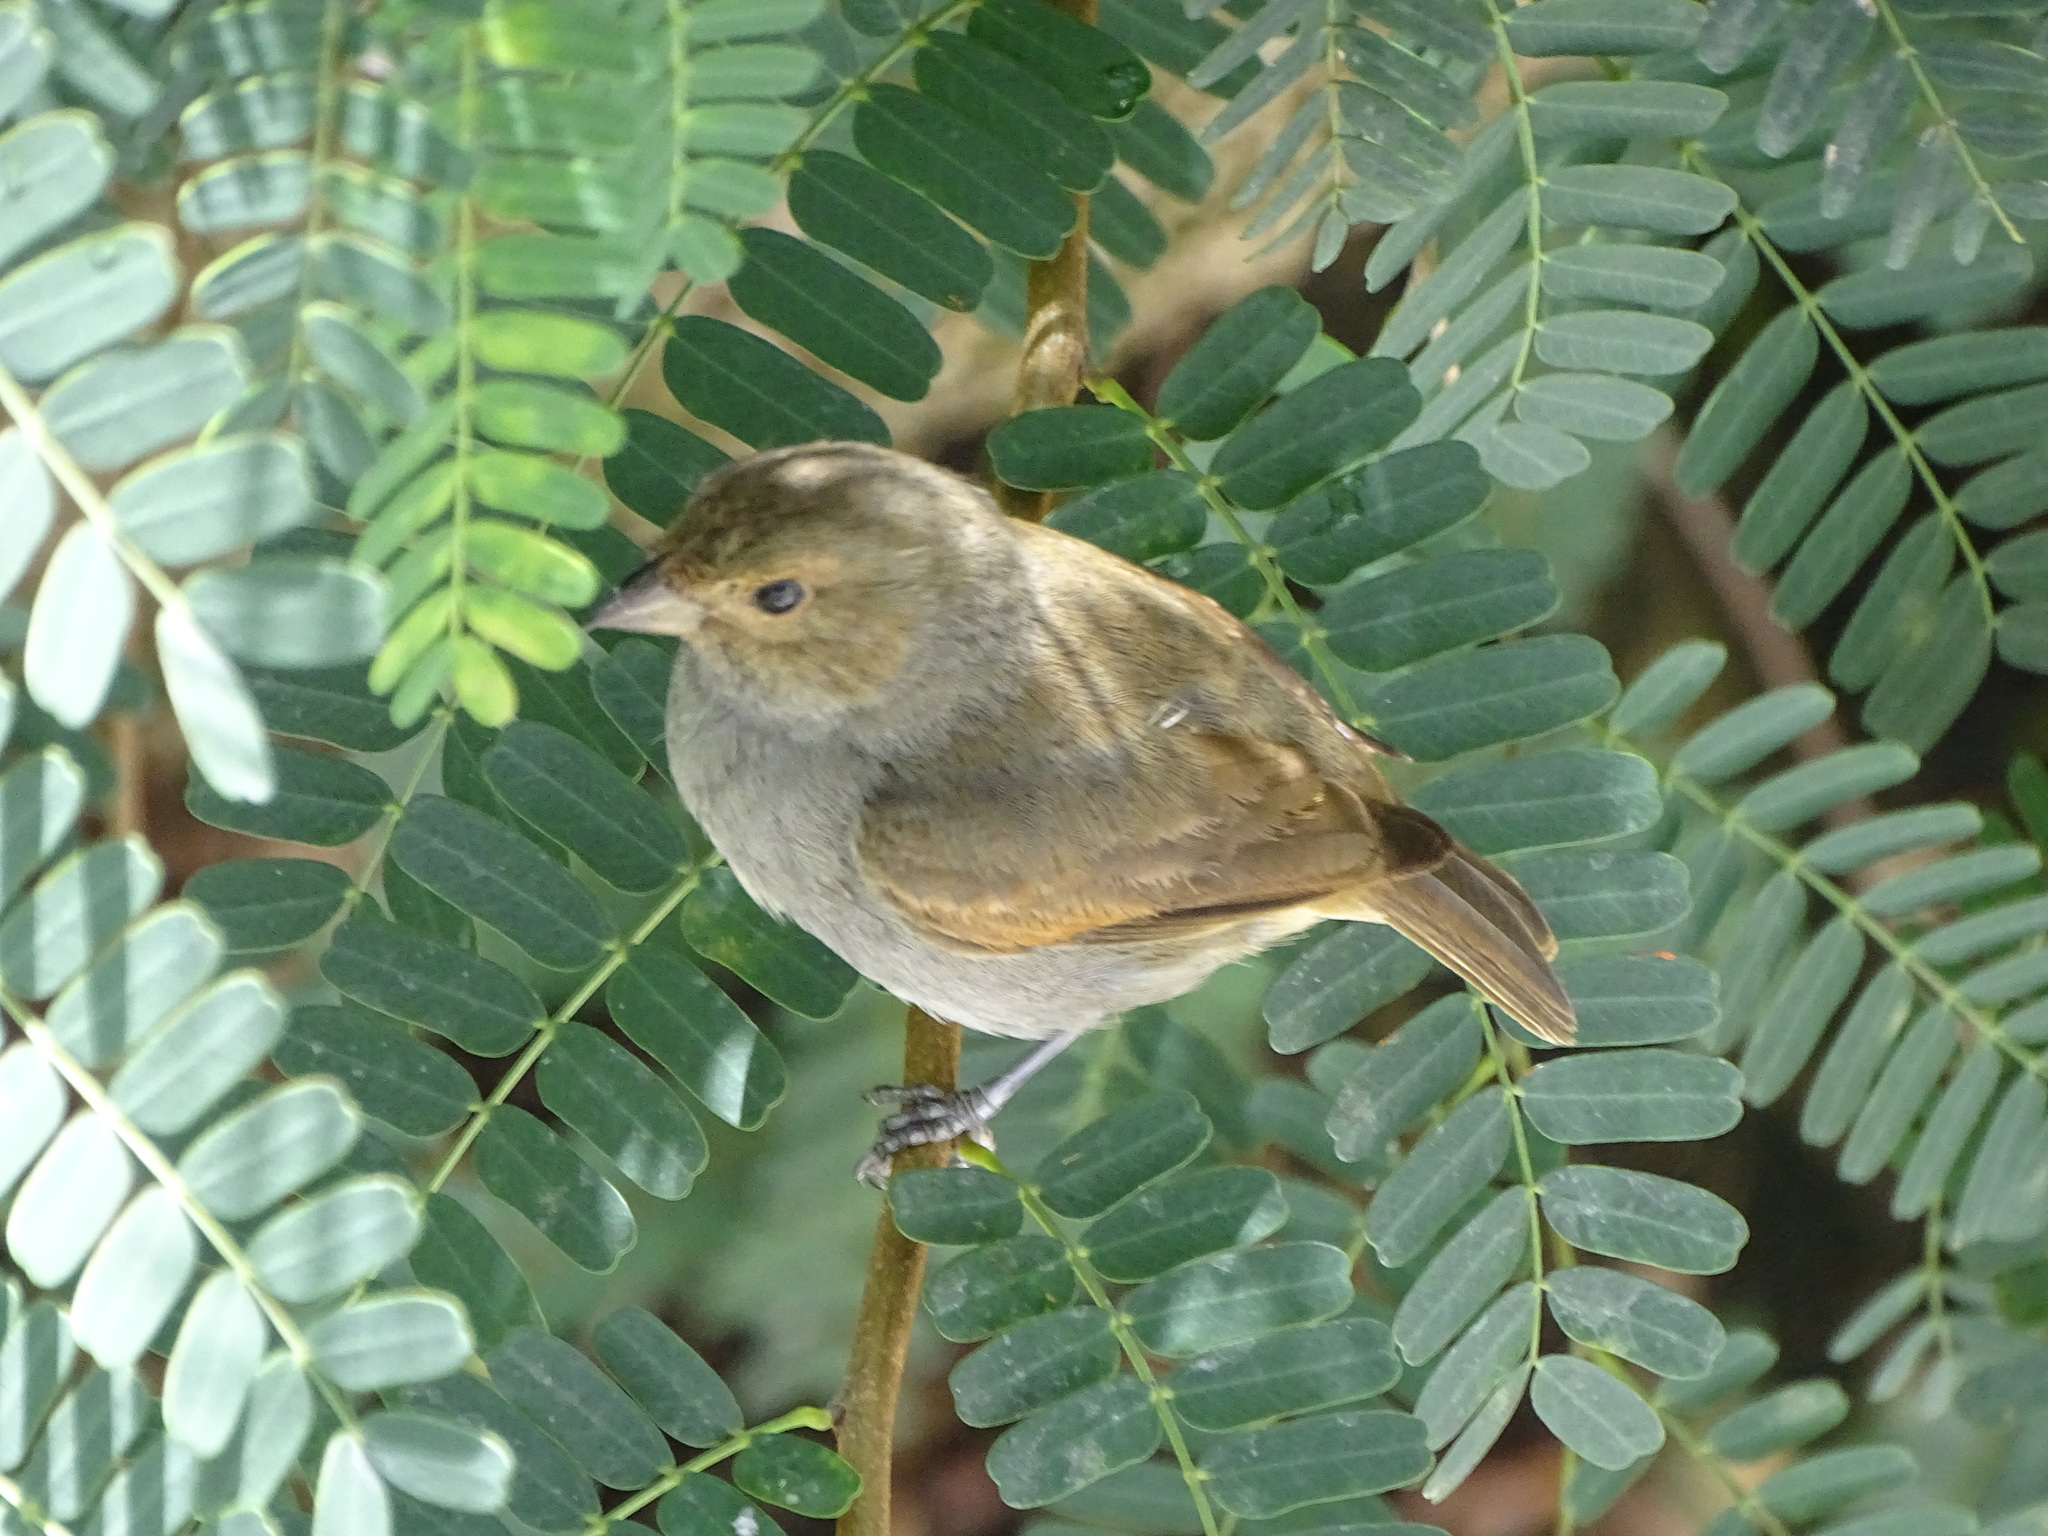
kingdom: Animalia
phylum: Chordata
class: Aves
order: Passeriformes
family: Thraupidae
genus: Loxigilla
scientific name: Loxigilla noctis
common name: Lesser antillean bullfinch
